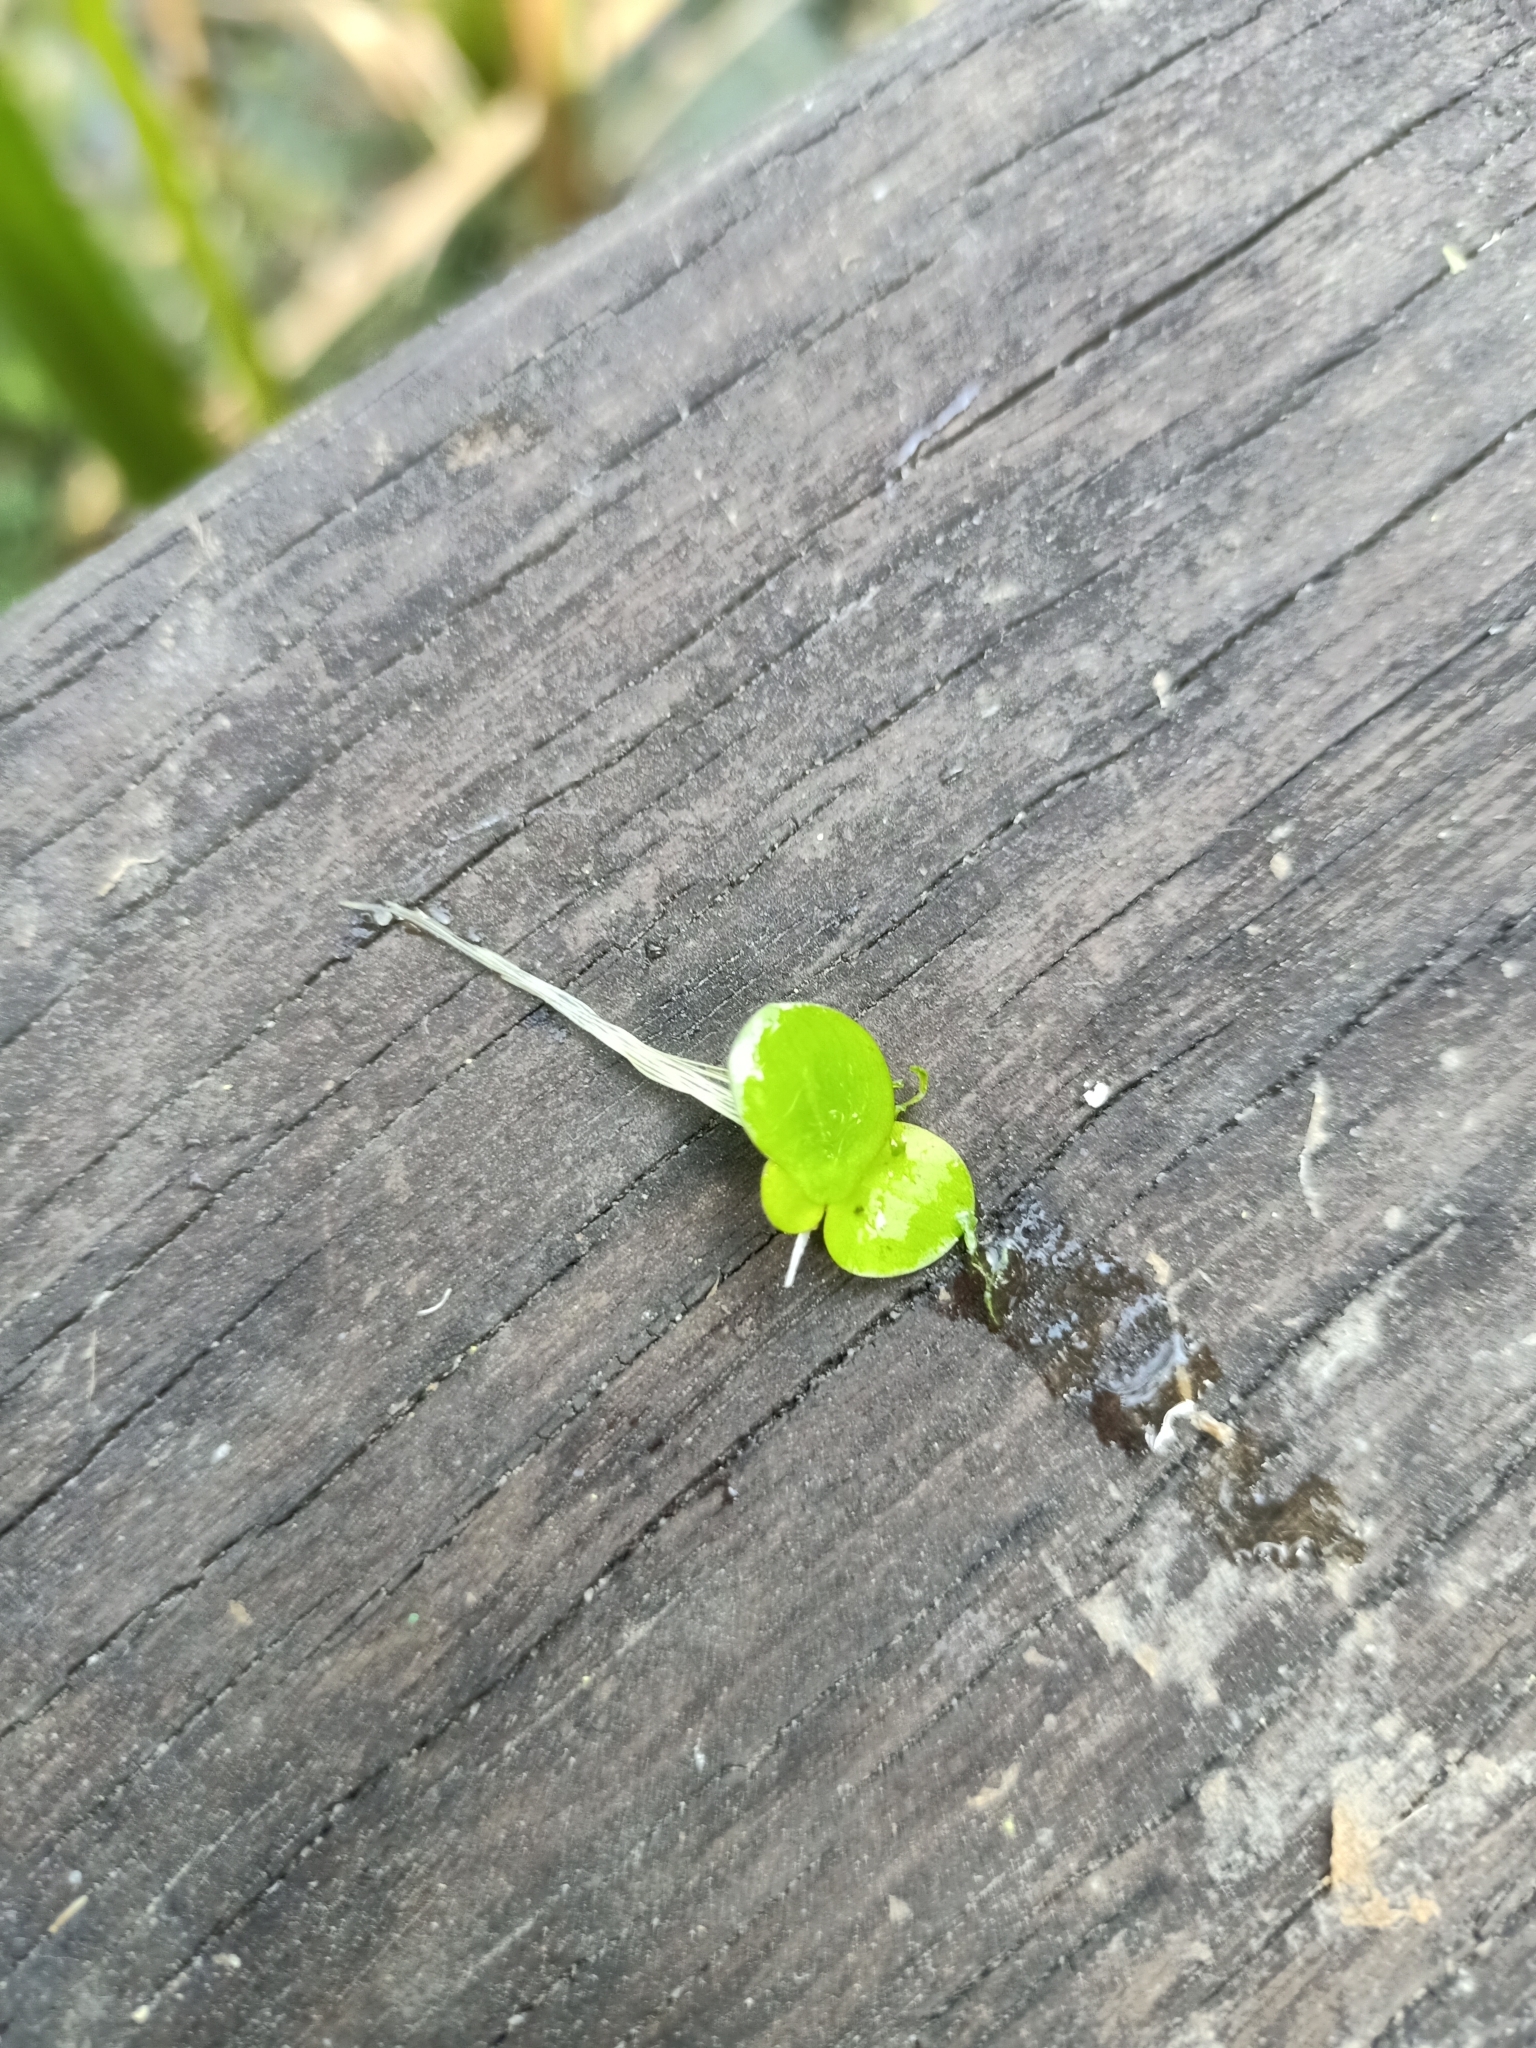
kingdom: Plantae
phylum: Tracheophyta
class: Liliopsida
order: Alismatales
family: Araceae
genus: Spirodela
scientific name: Spirodela polyrhiza
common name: Great duckweed
